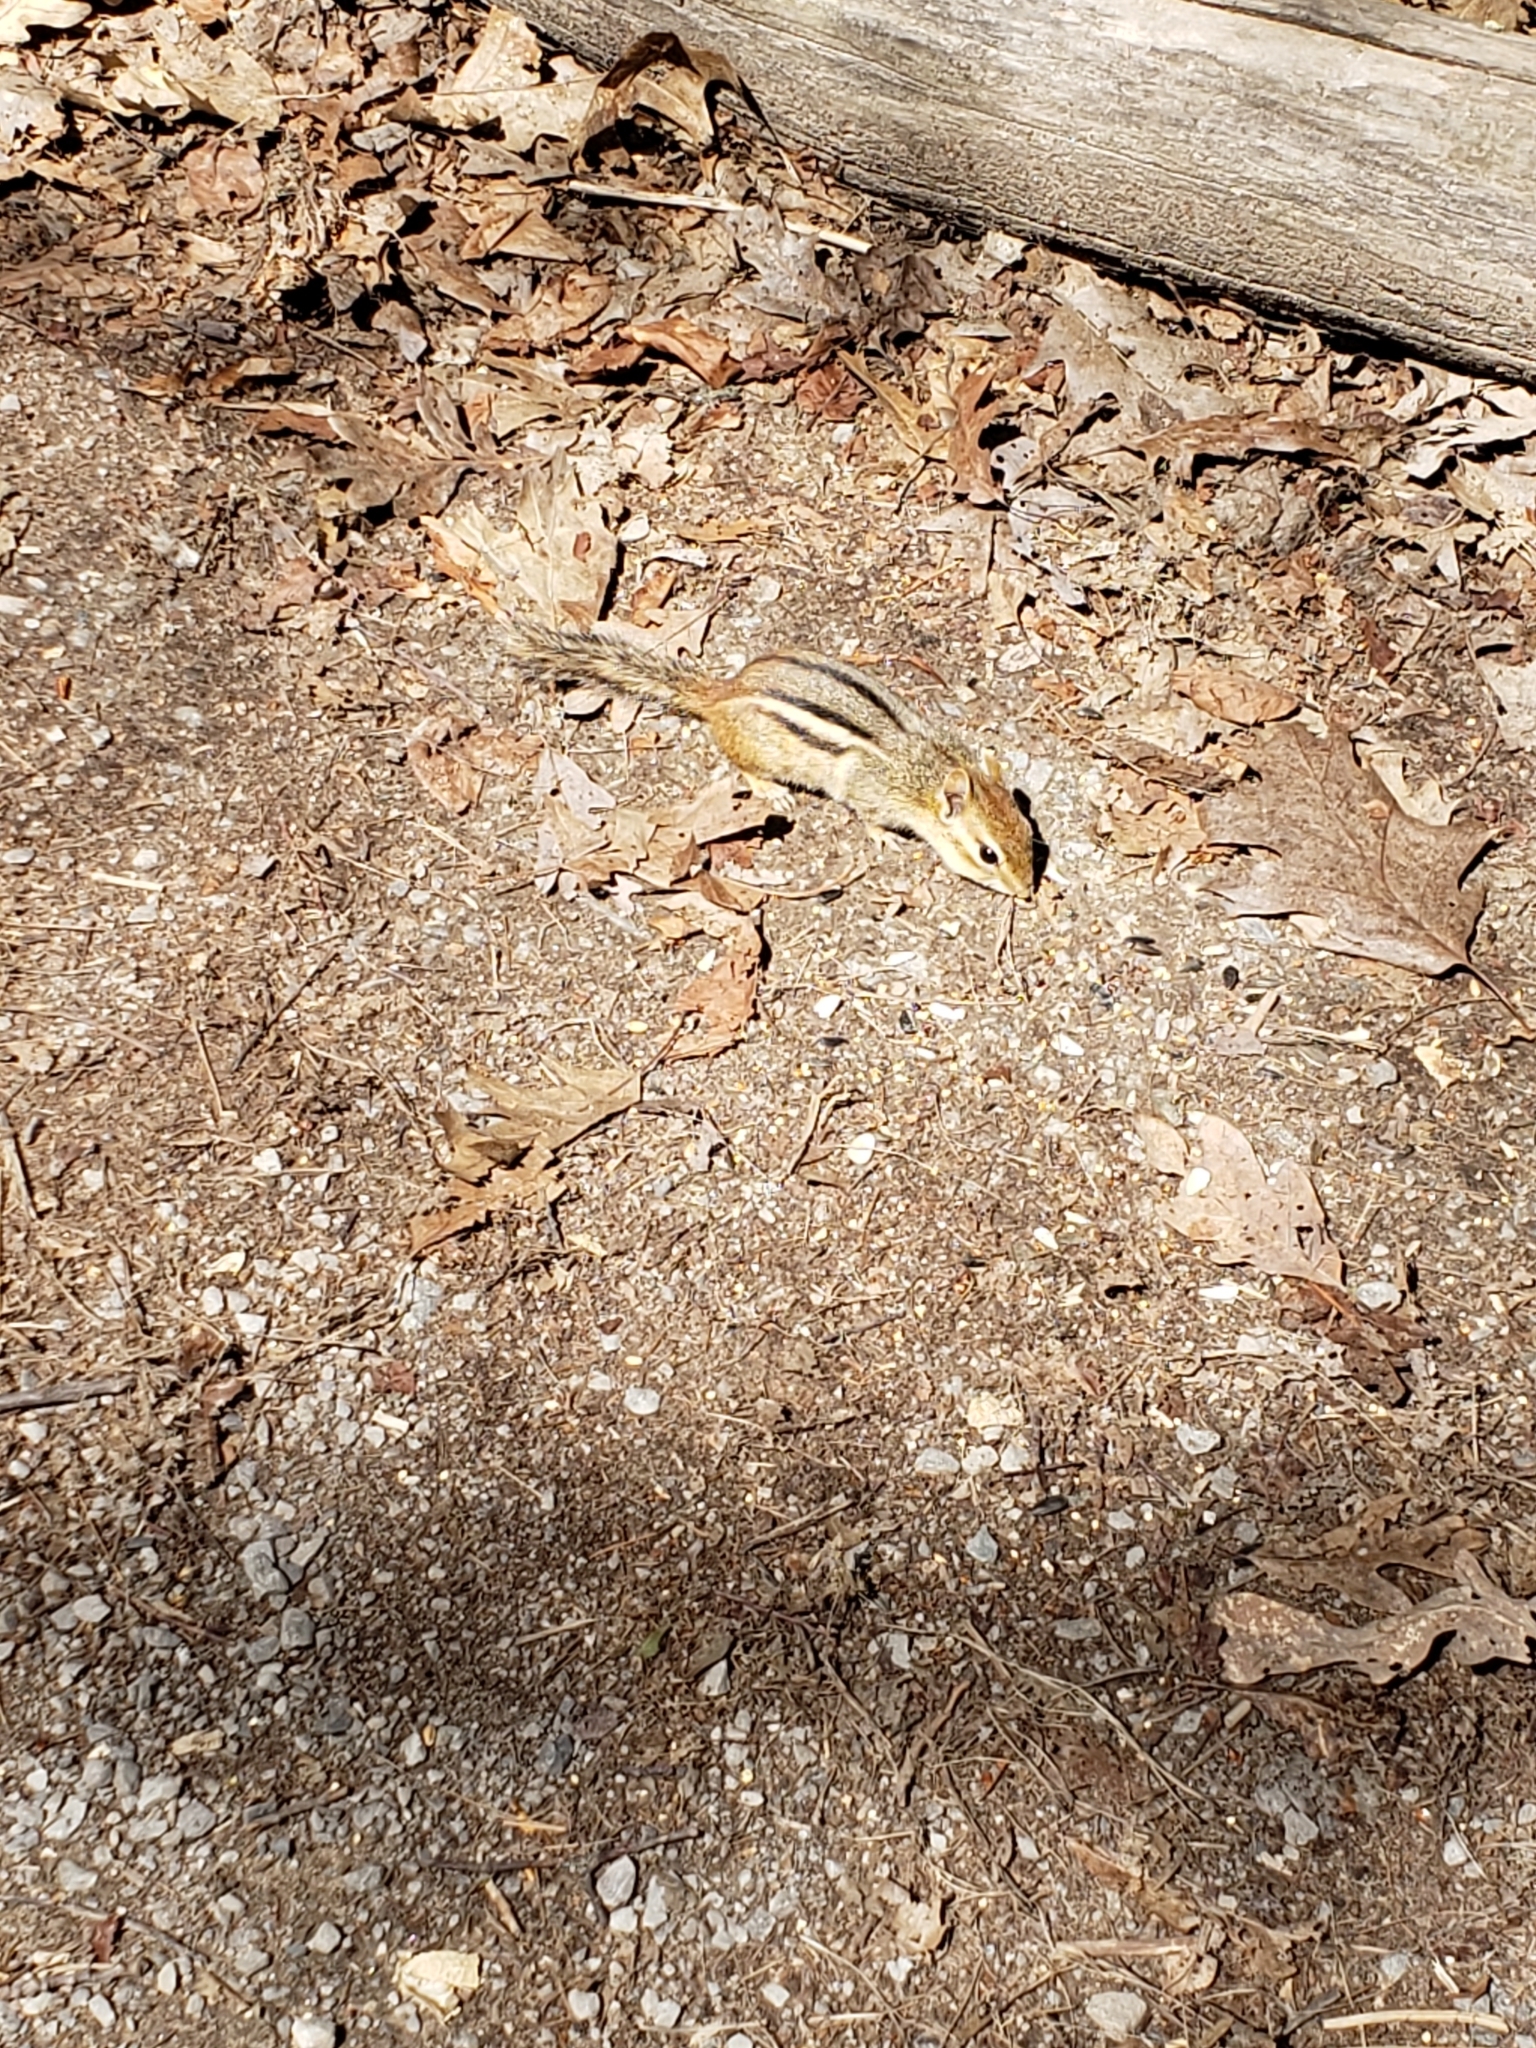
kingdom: Animalia
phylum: Chordata
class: Mammalia
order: Rodentia
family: Sciuridae
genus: Tamias
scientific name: Tamias striatus
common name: Eastern chipmunk
